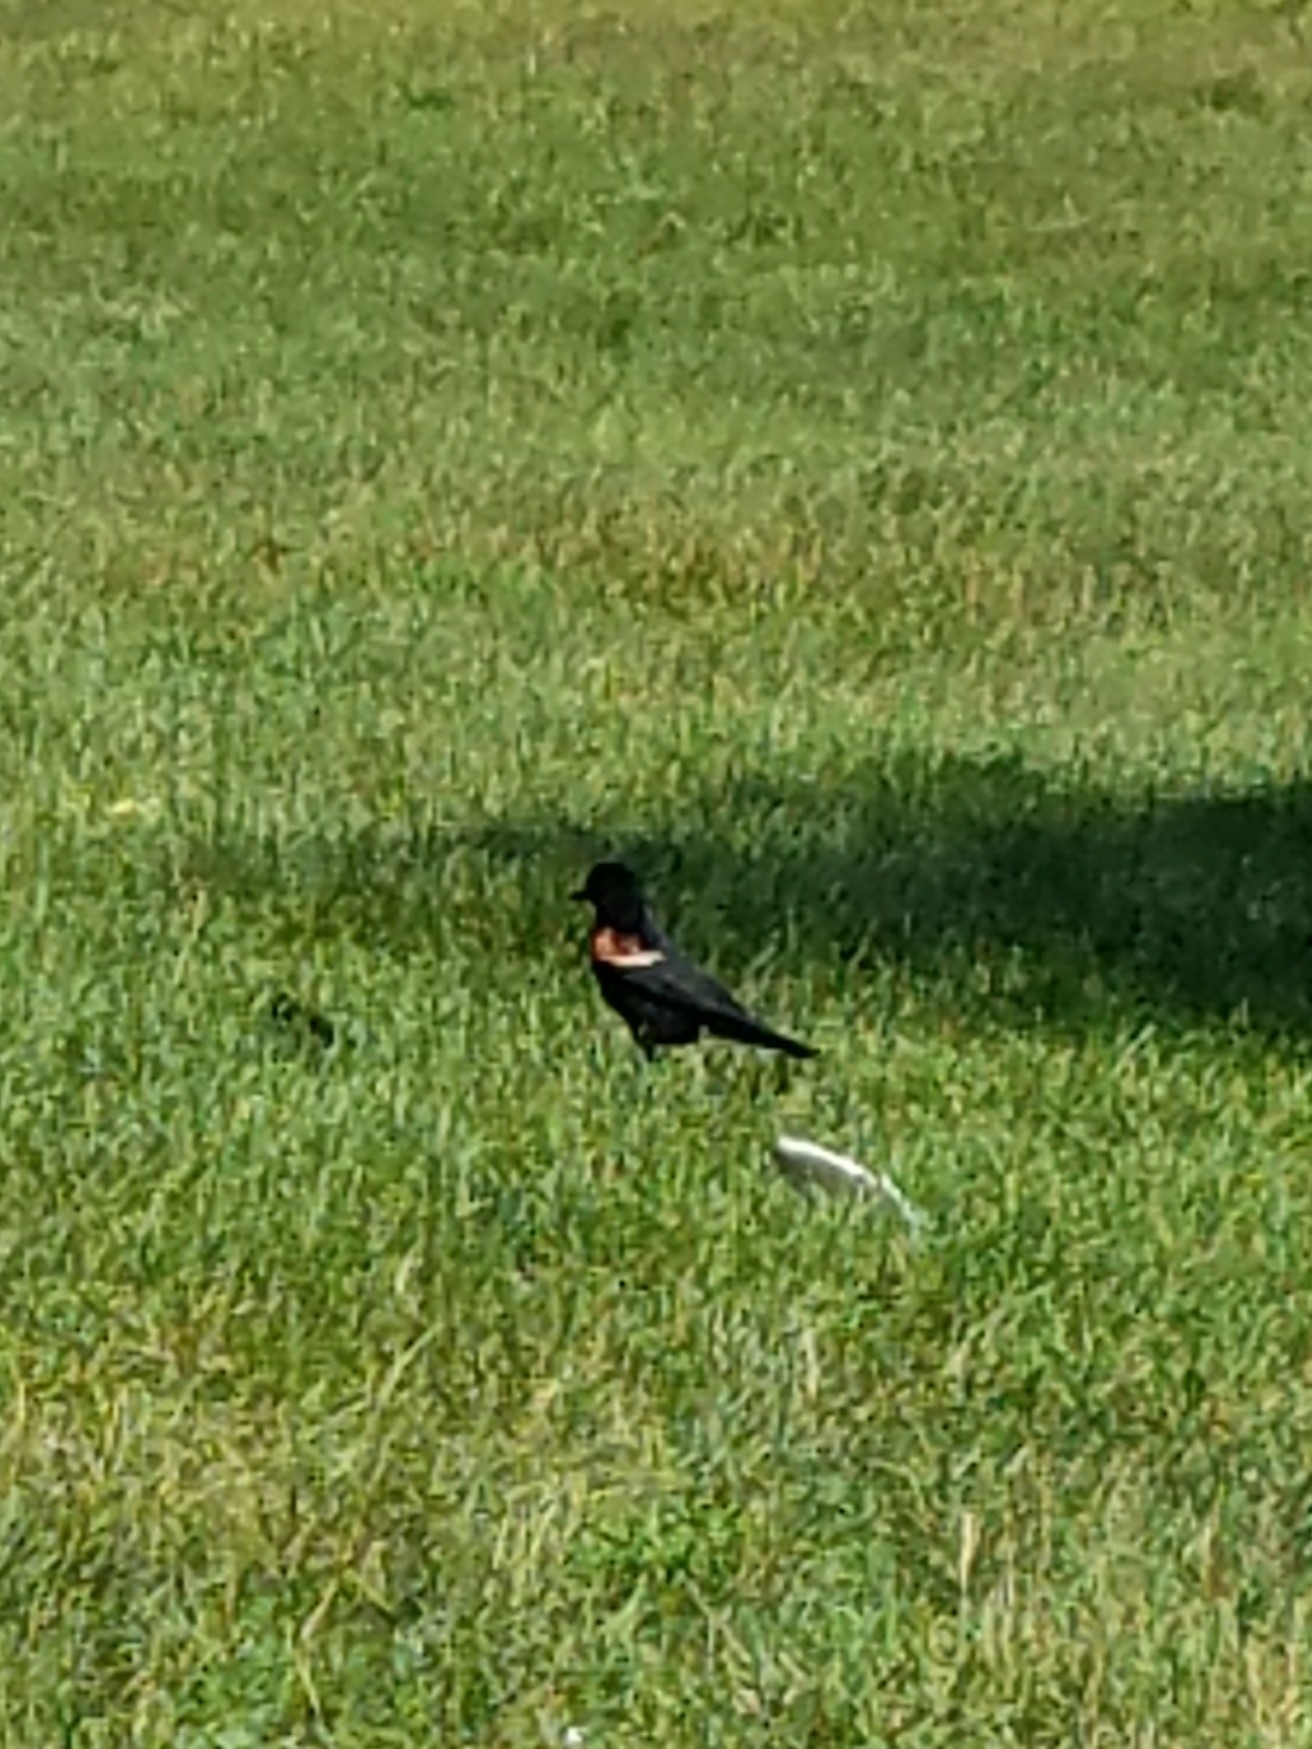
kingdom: Animalia
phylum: Chordata
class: Aves
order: Passeriformes
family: Icteridae
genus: Agelaius
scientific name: Agelaius phoeniceus
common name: Red-winged blackbird
